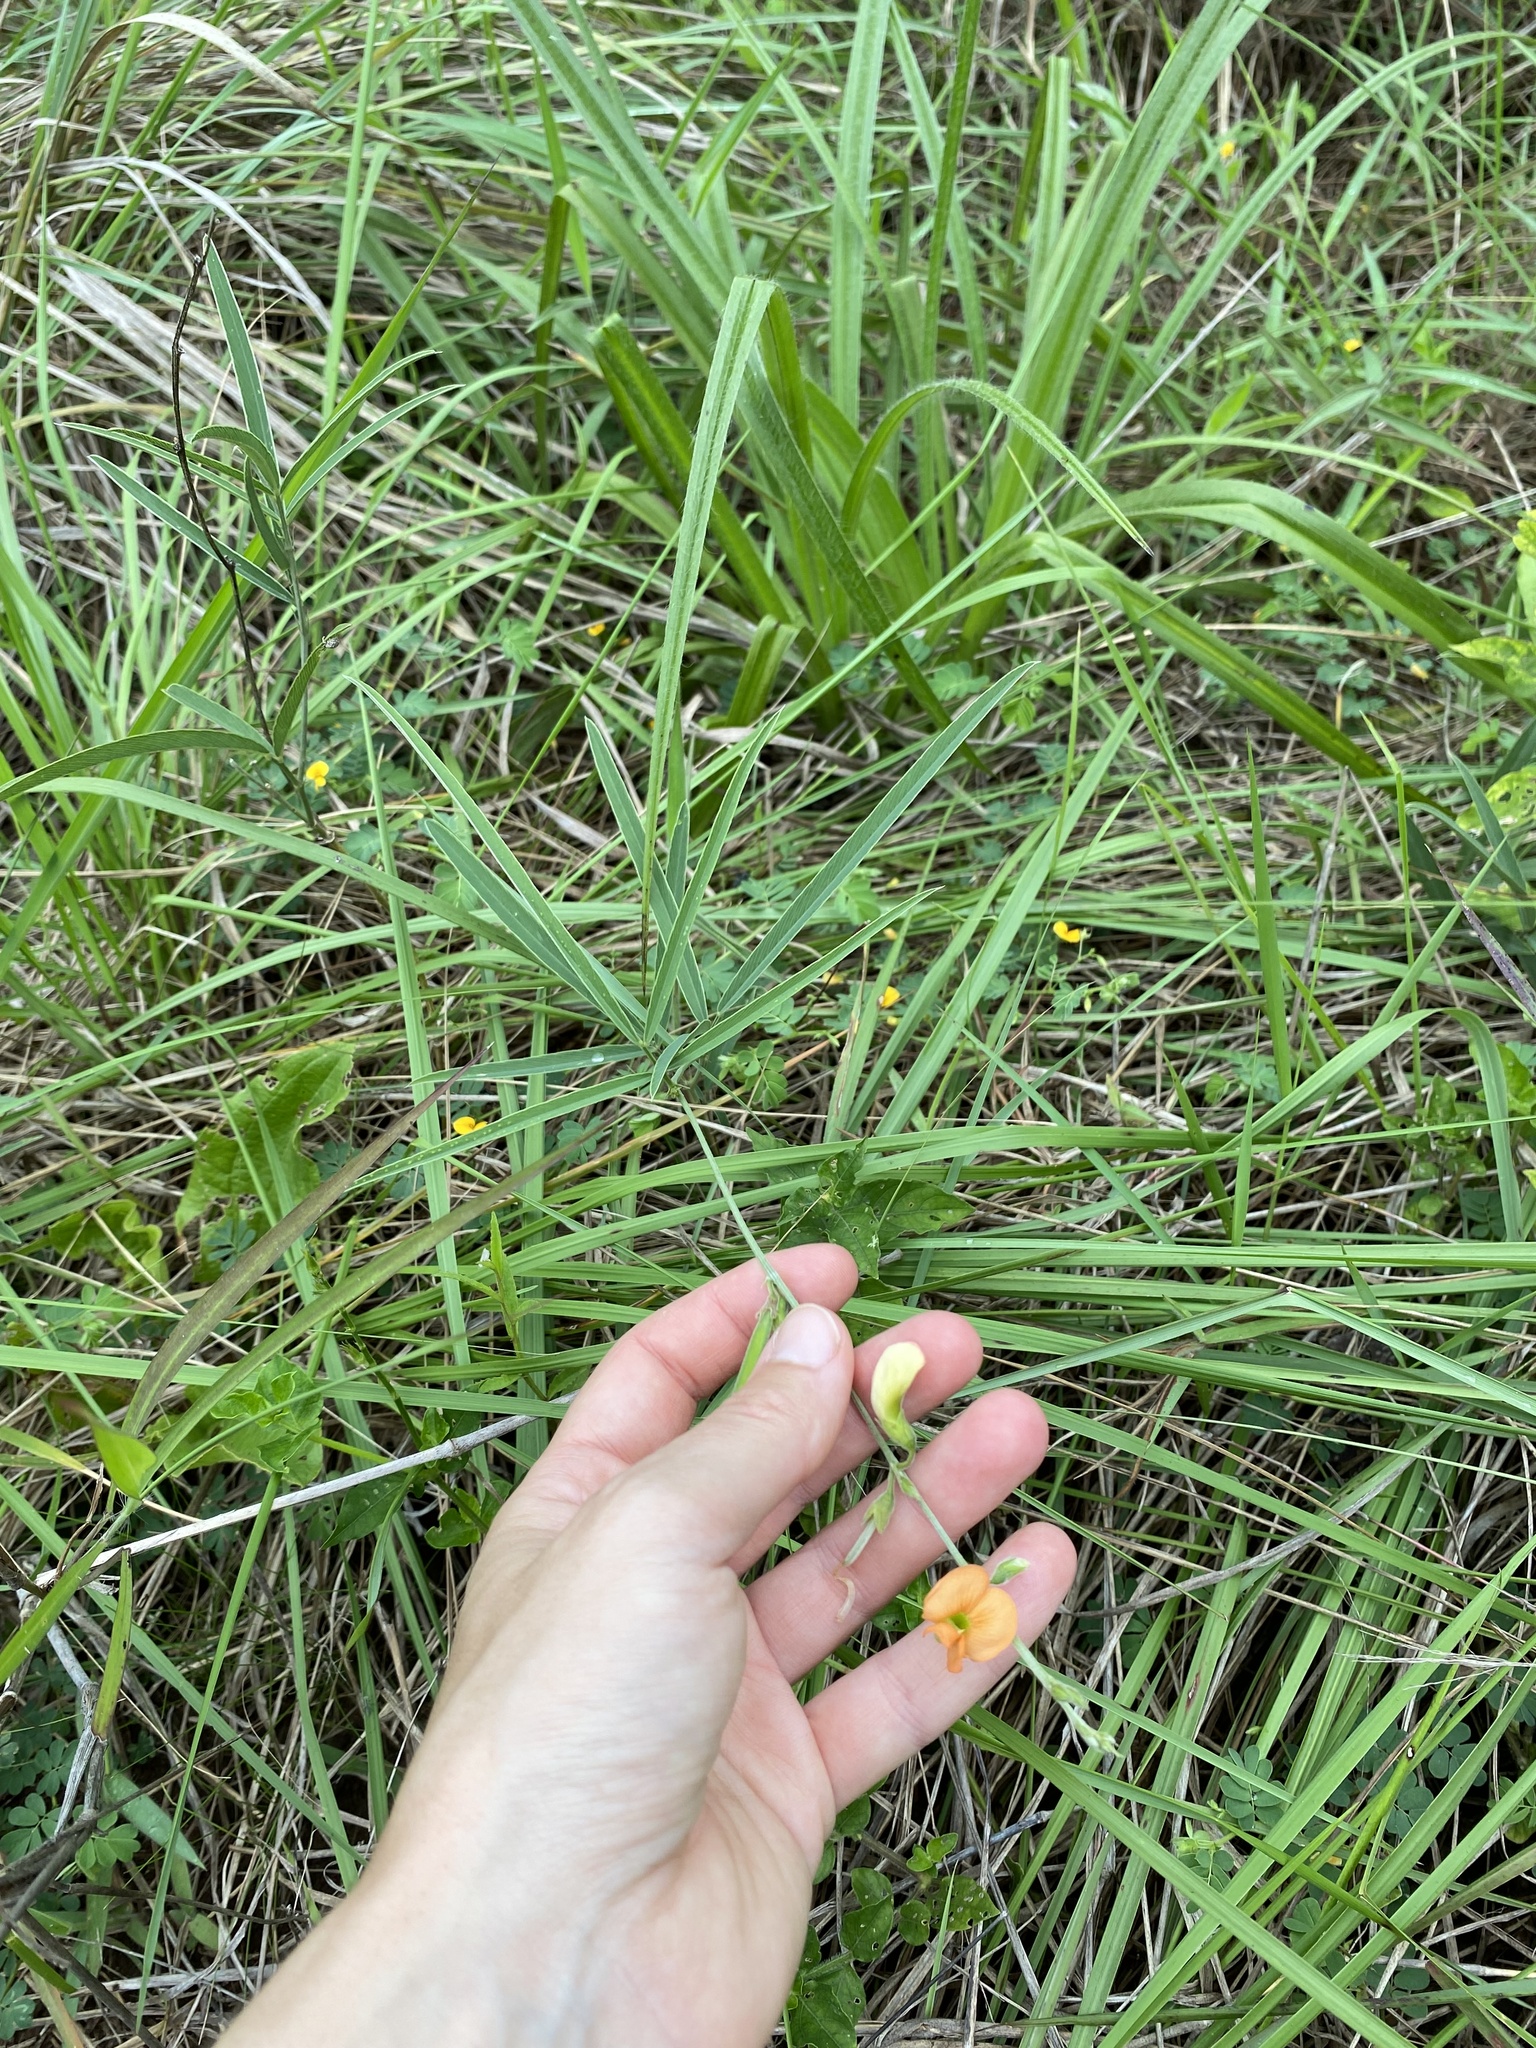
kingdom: Plantae
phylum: Tracheophyta
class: Magnoliopsida
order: Fabales
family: Fabaceae
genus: Tephrosia
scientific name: Tephrosia elongata
